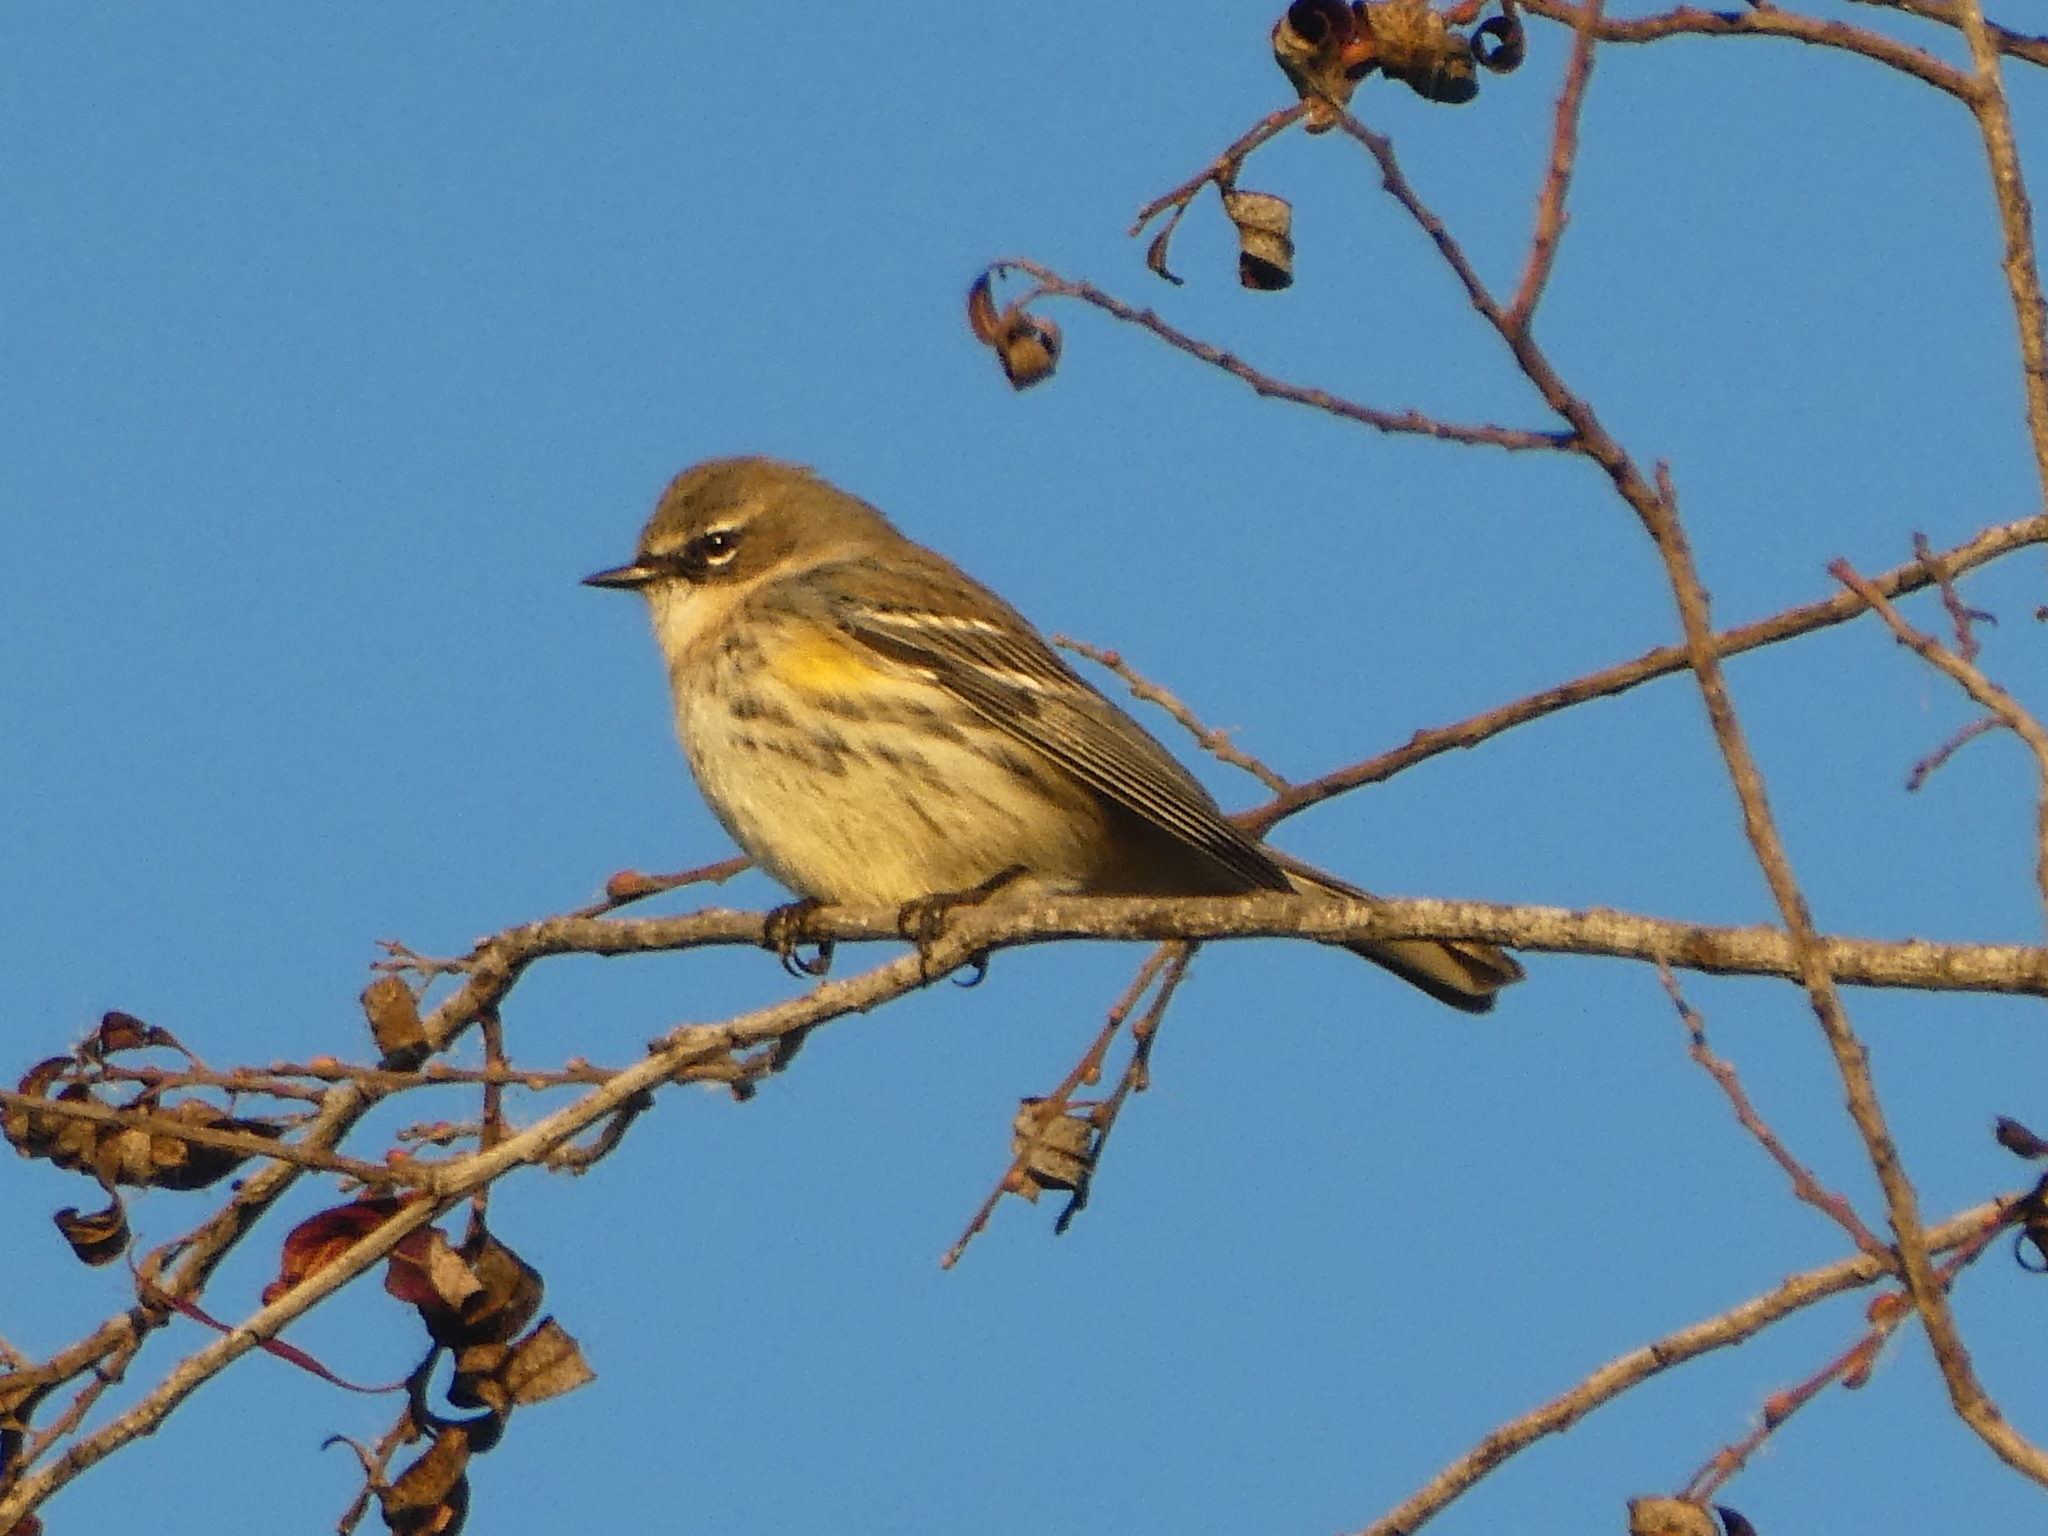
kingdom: Animalia
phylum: Chordata
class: Aves
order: Passeriformes
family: Parulidae
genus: Setophaga
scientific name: Setophaga coronata
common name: Myrtle warbler
